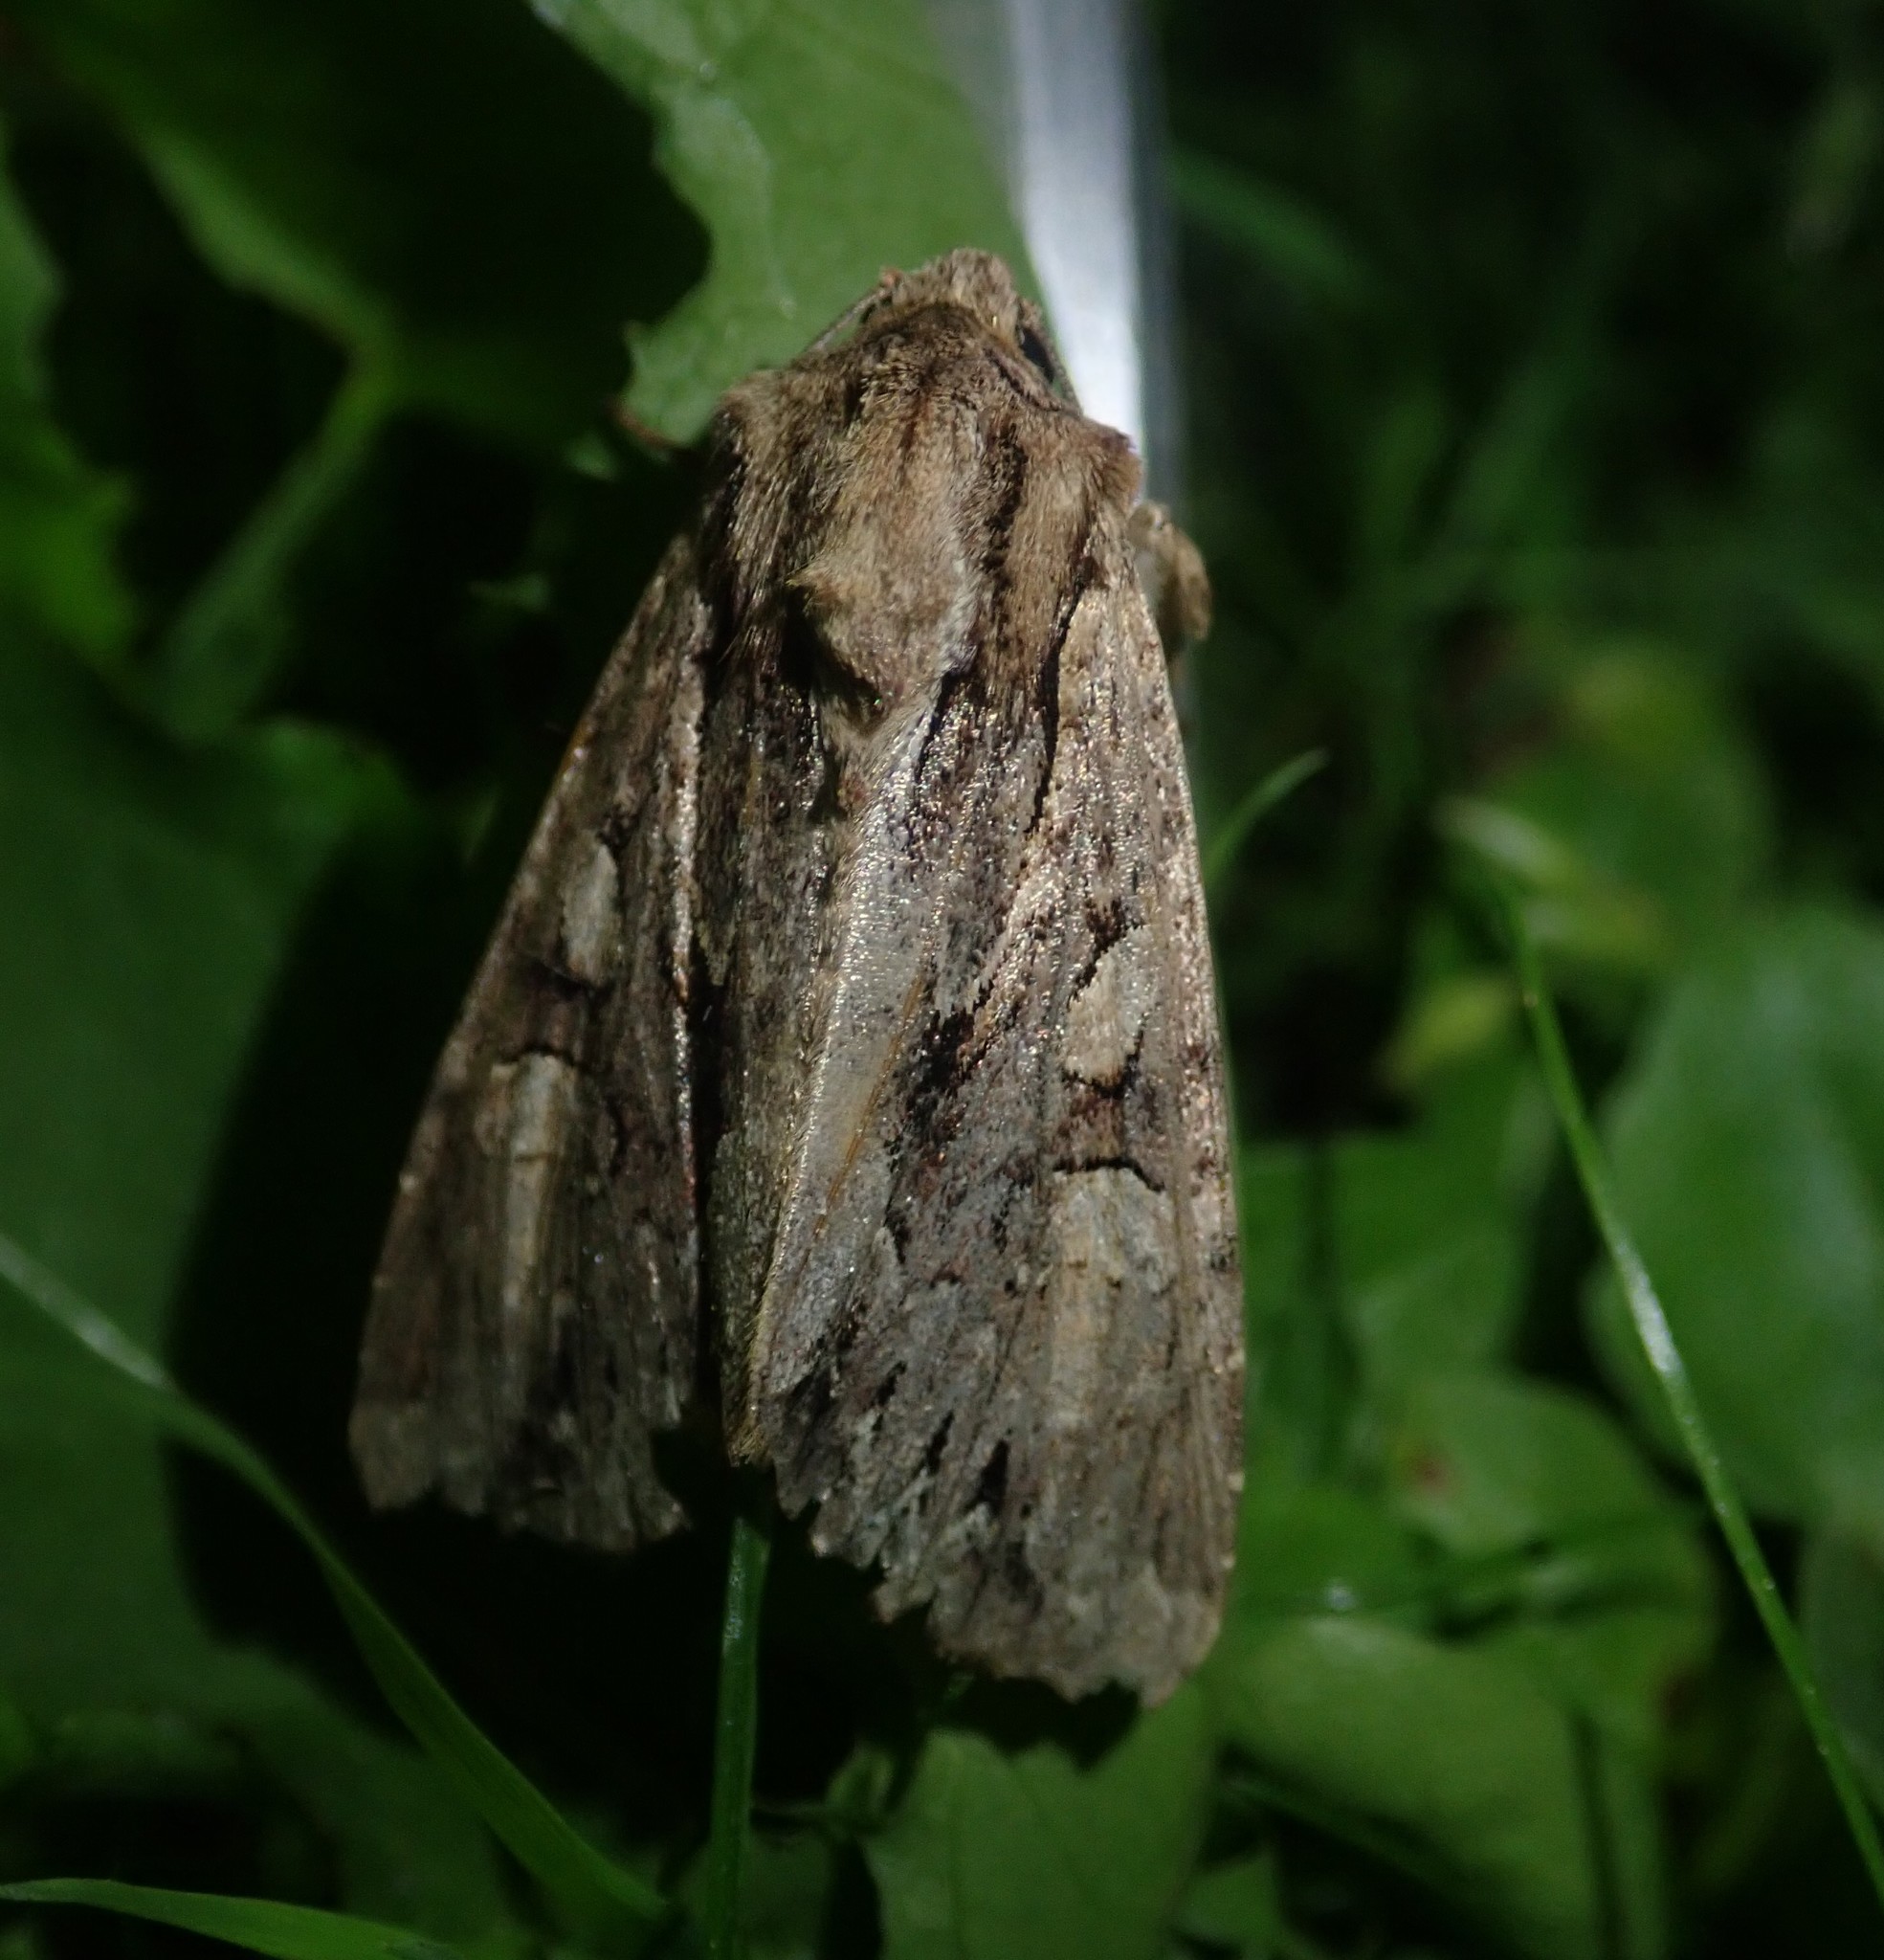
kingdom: Animalia
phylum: Arthropoda
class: Insecta
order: Lepidoptera
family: Noctuidae
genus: Apamea
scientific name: Apamea monoglypha
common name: Dark arches
